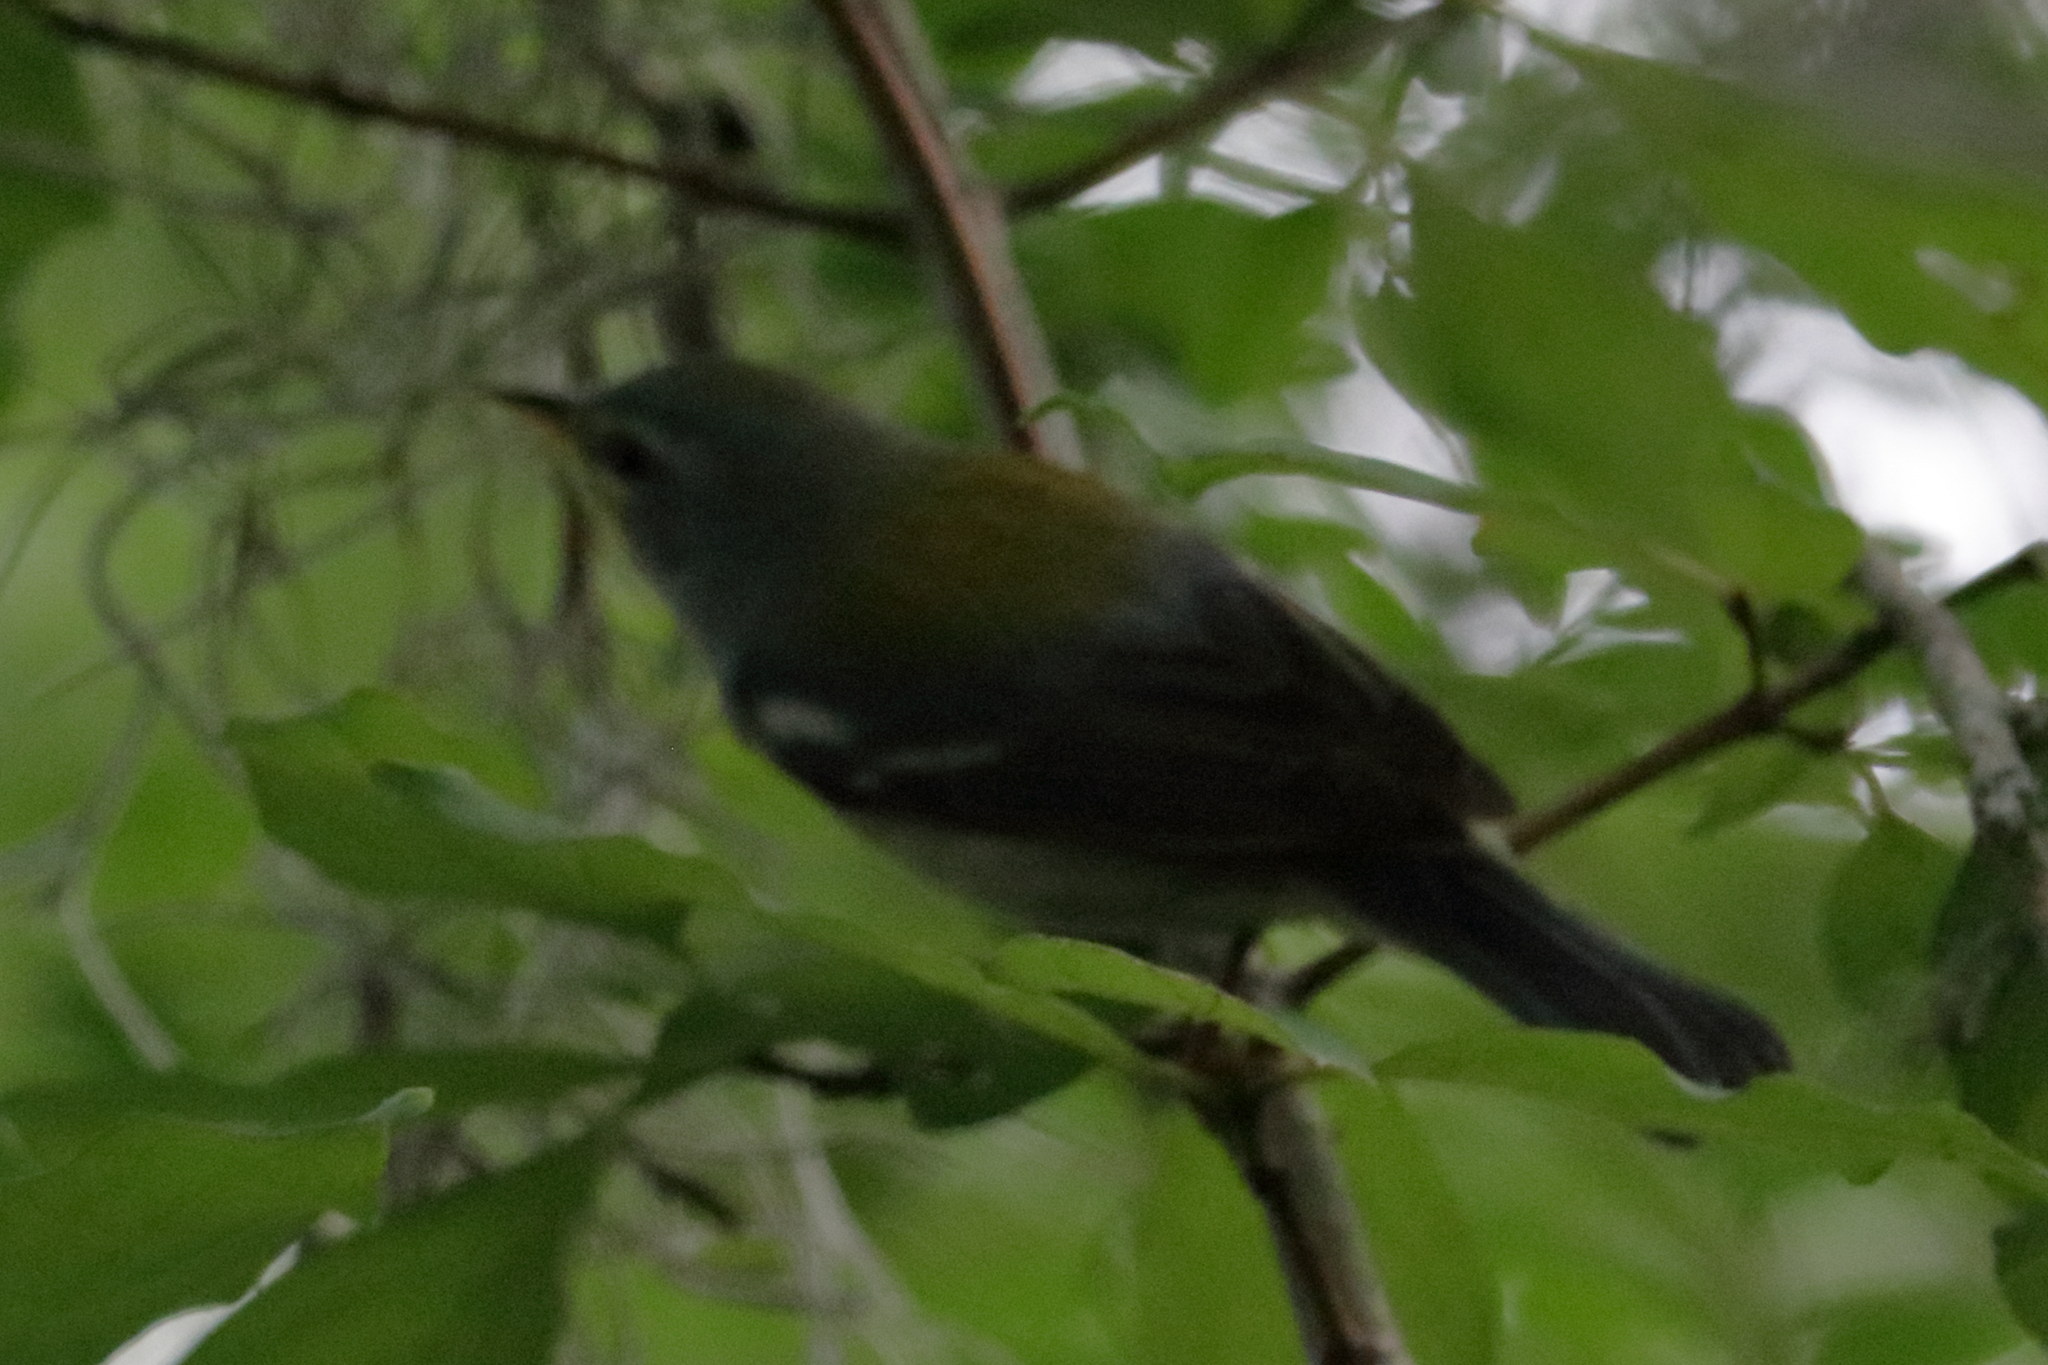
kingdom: Animalia
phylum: Chordata
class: Aves
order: Passeriformes
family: Parulidae
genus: Setophaga
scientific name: Setophaga americana
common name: Northern parula
